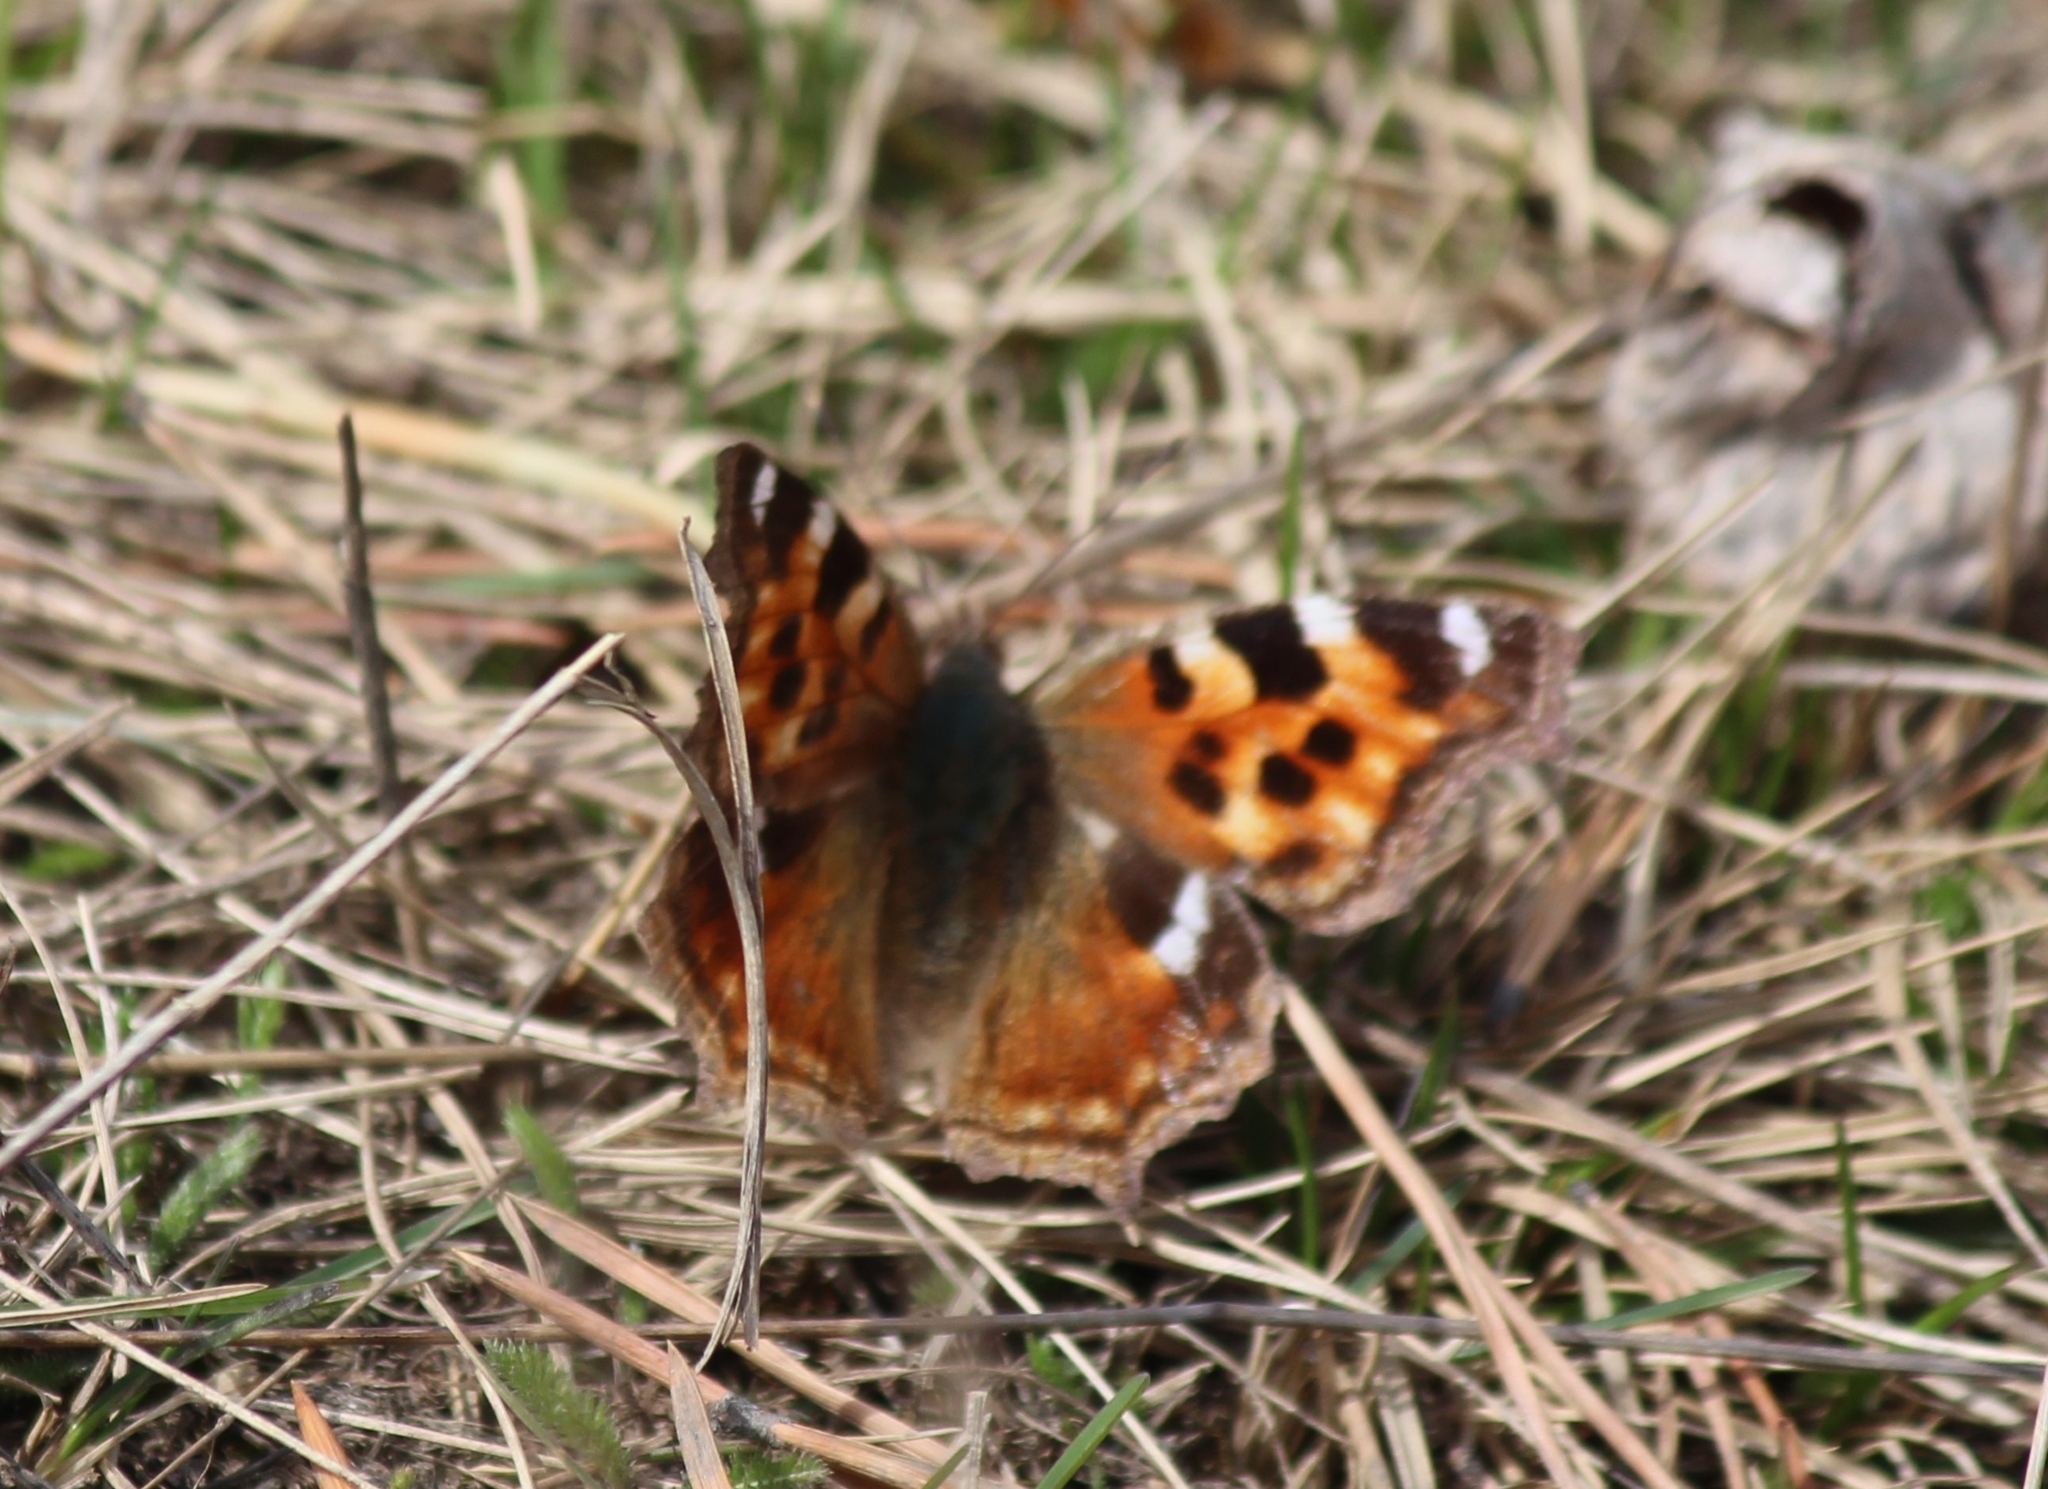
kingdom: Animalia
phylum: Arthropoda
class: Insecta
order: Lepidoptera
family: Nymphalidae
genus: Polygonia
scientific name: Polygonia vaualbum
